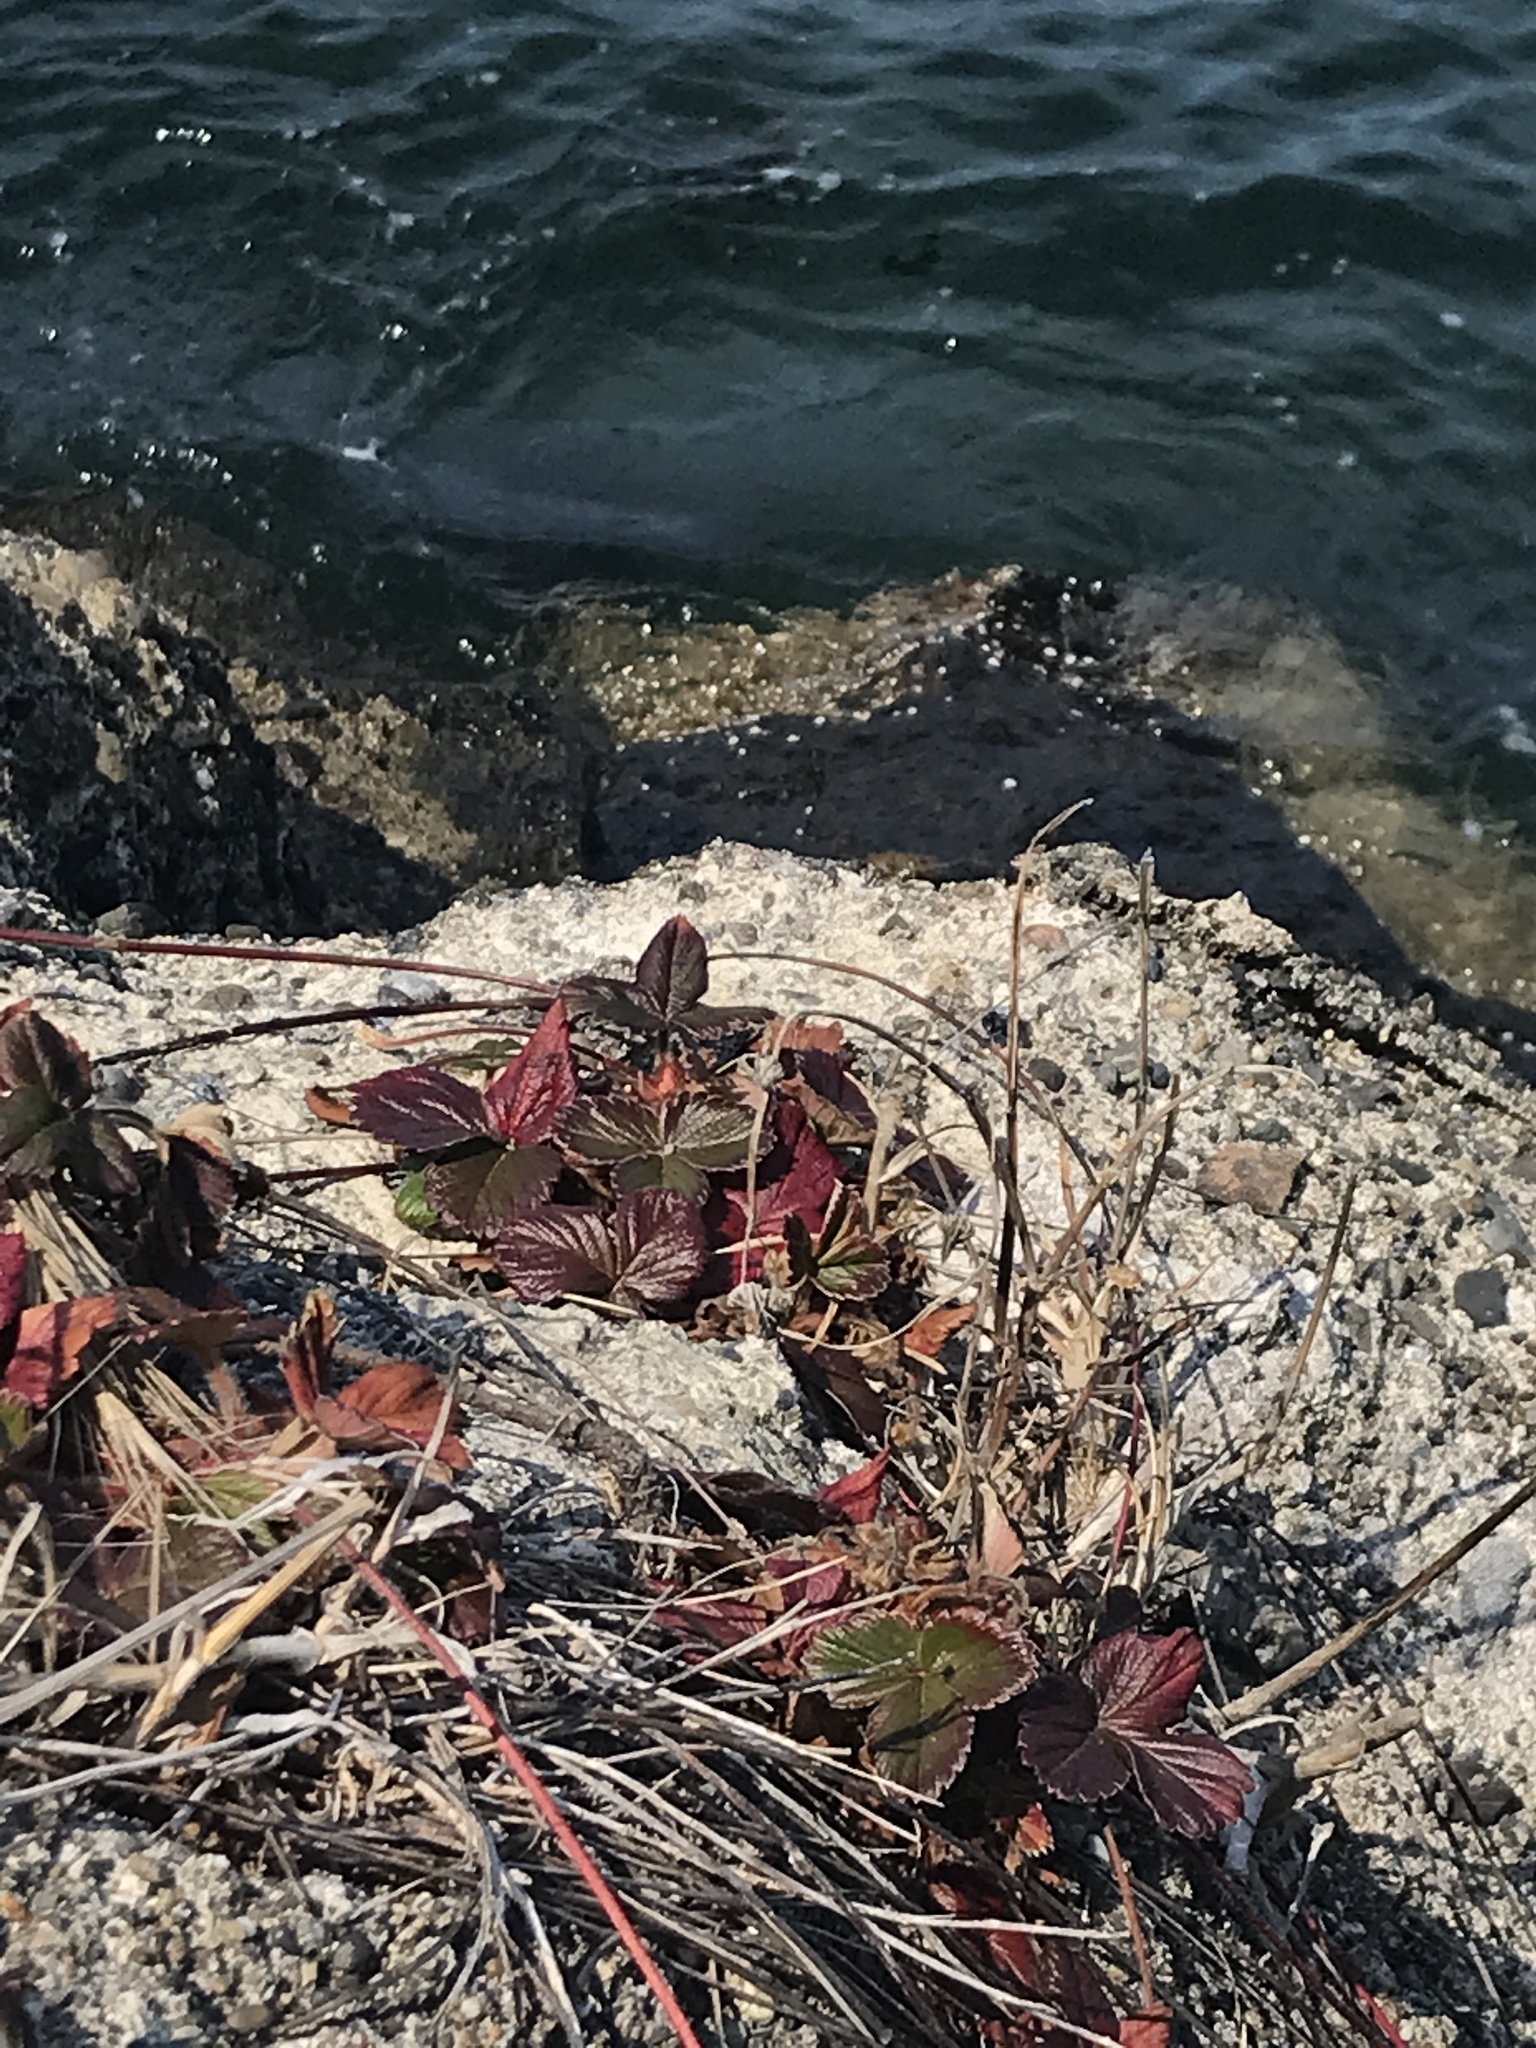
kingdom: Plantae
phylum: Tracheophyta
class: Magnoliopsida
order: Rosales
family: Rosaceae
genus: Fragaria
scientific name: Fragaria chiloensis
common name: Beach strawberry
